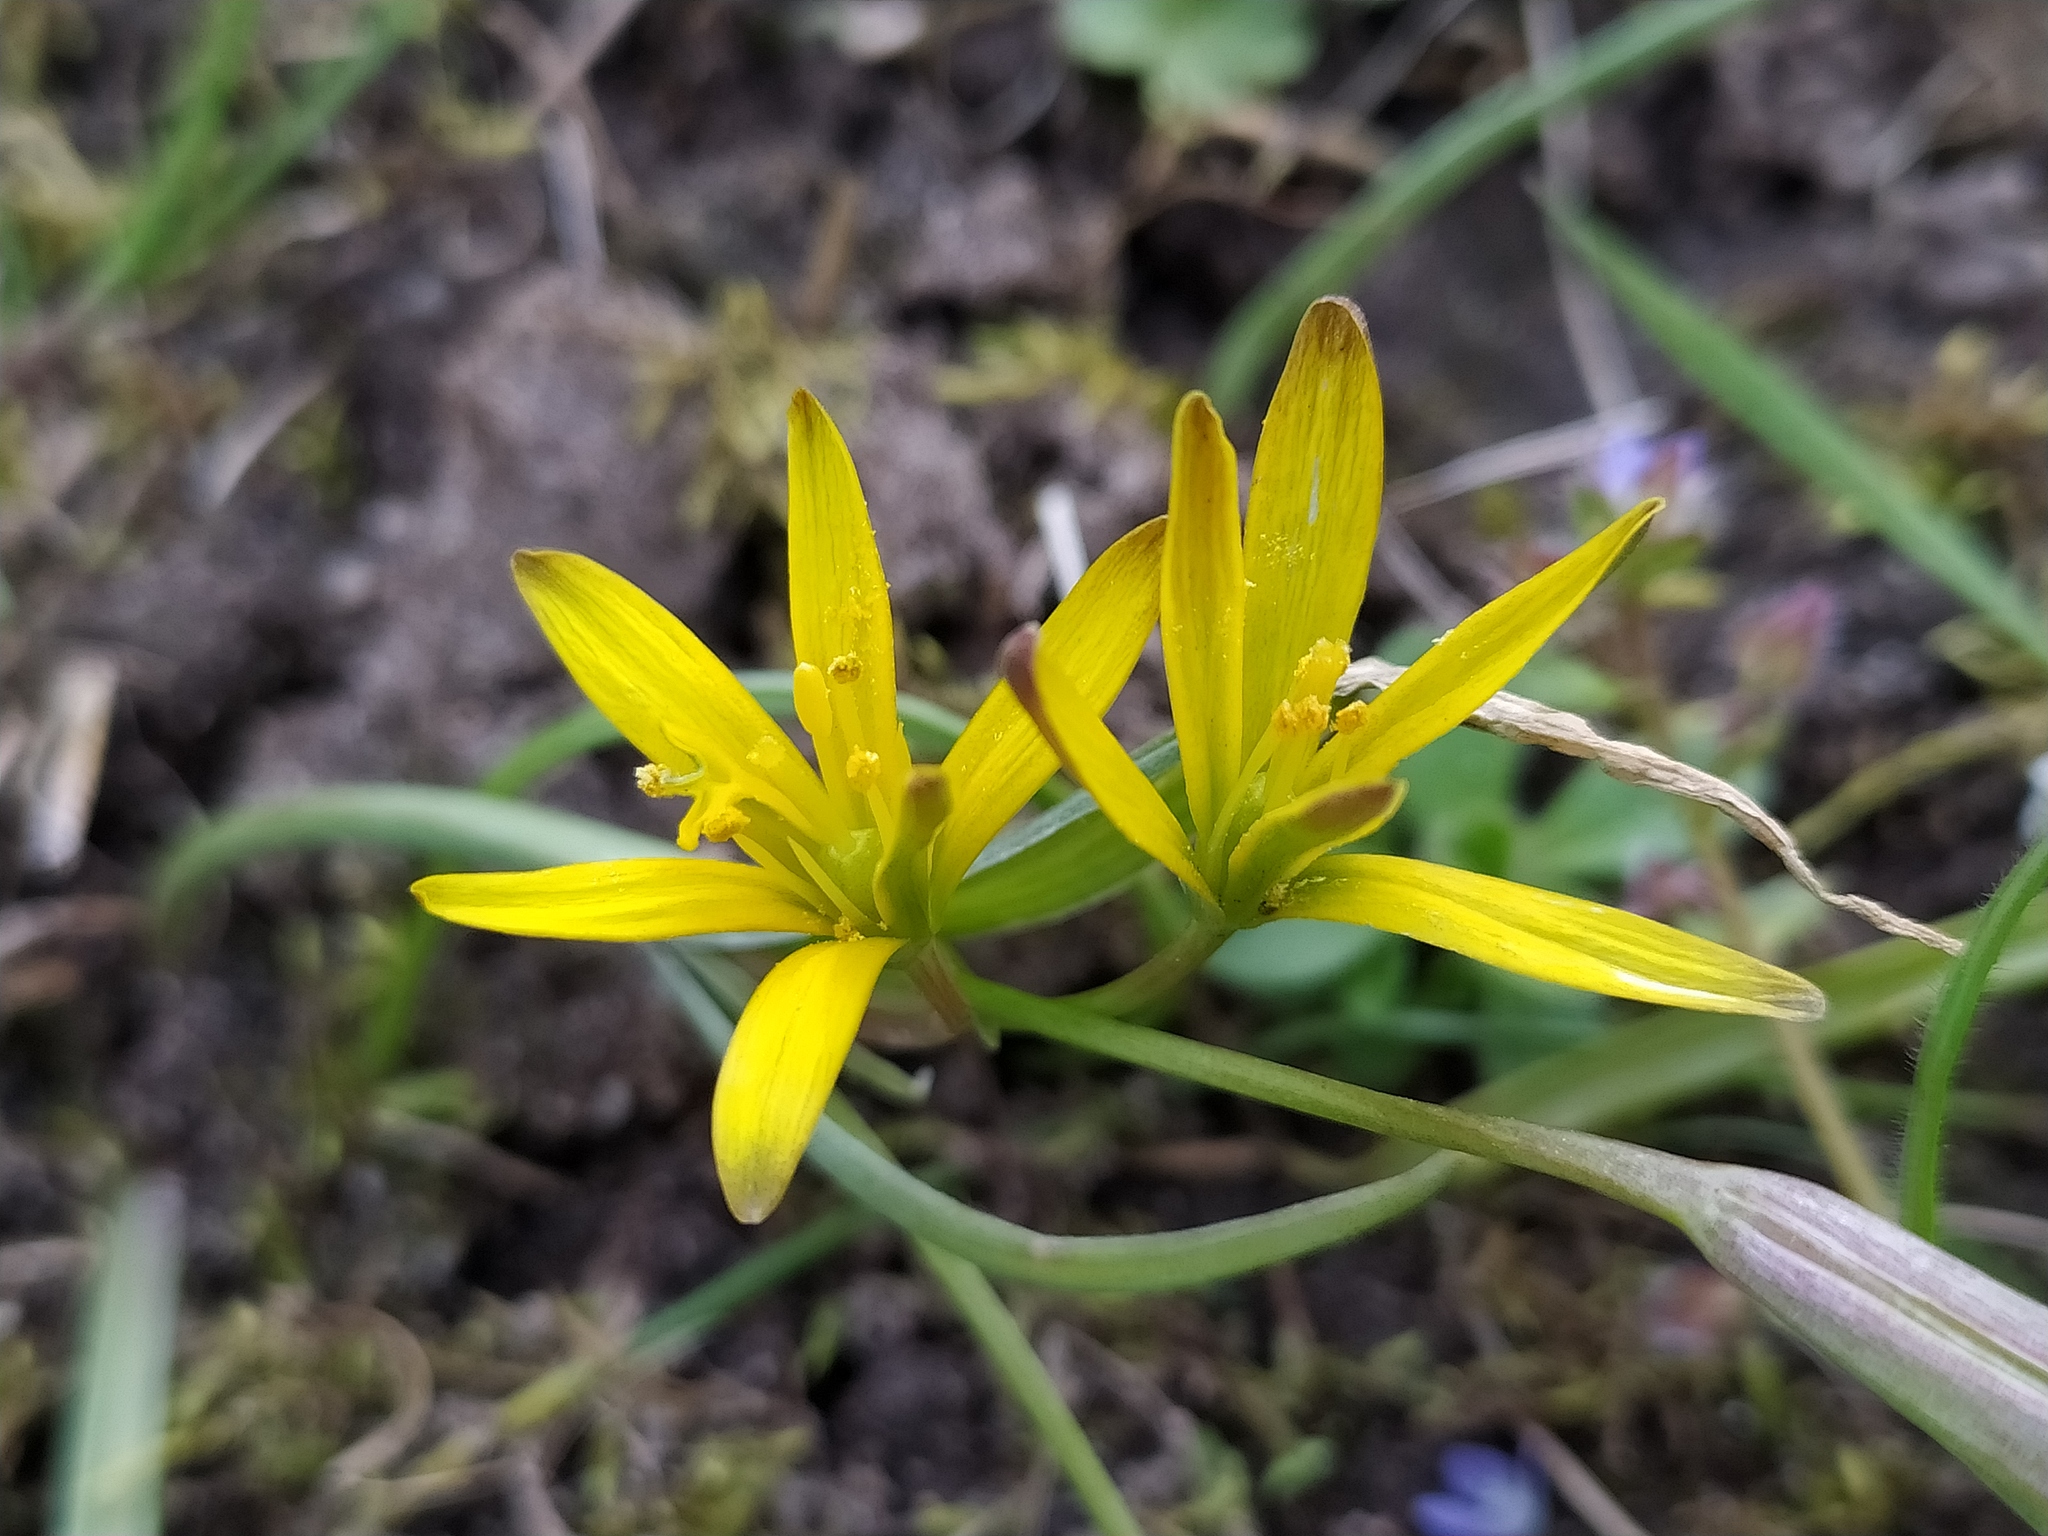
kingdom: Plantae
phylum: Tracheophyta
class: Liliopsida
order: Liliales
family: Liliaceae
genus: Gagea
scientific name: Gagea pratensis
